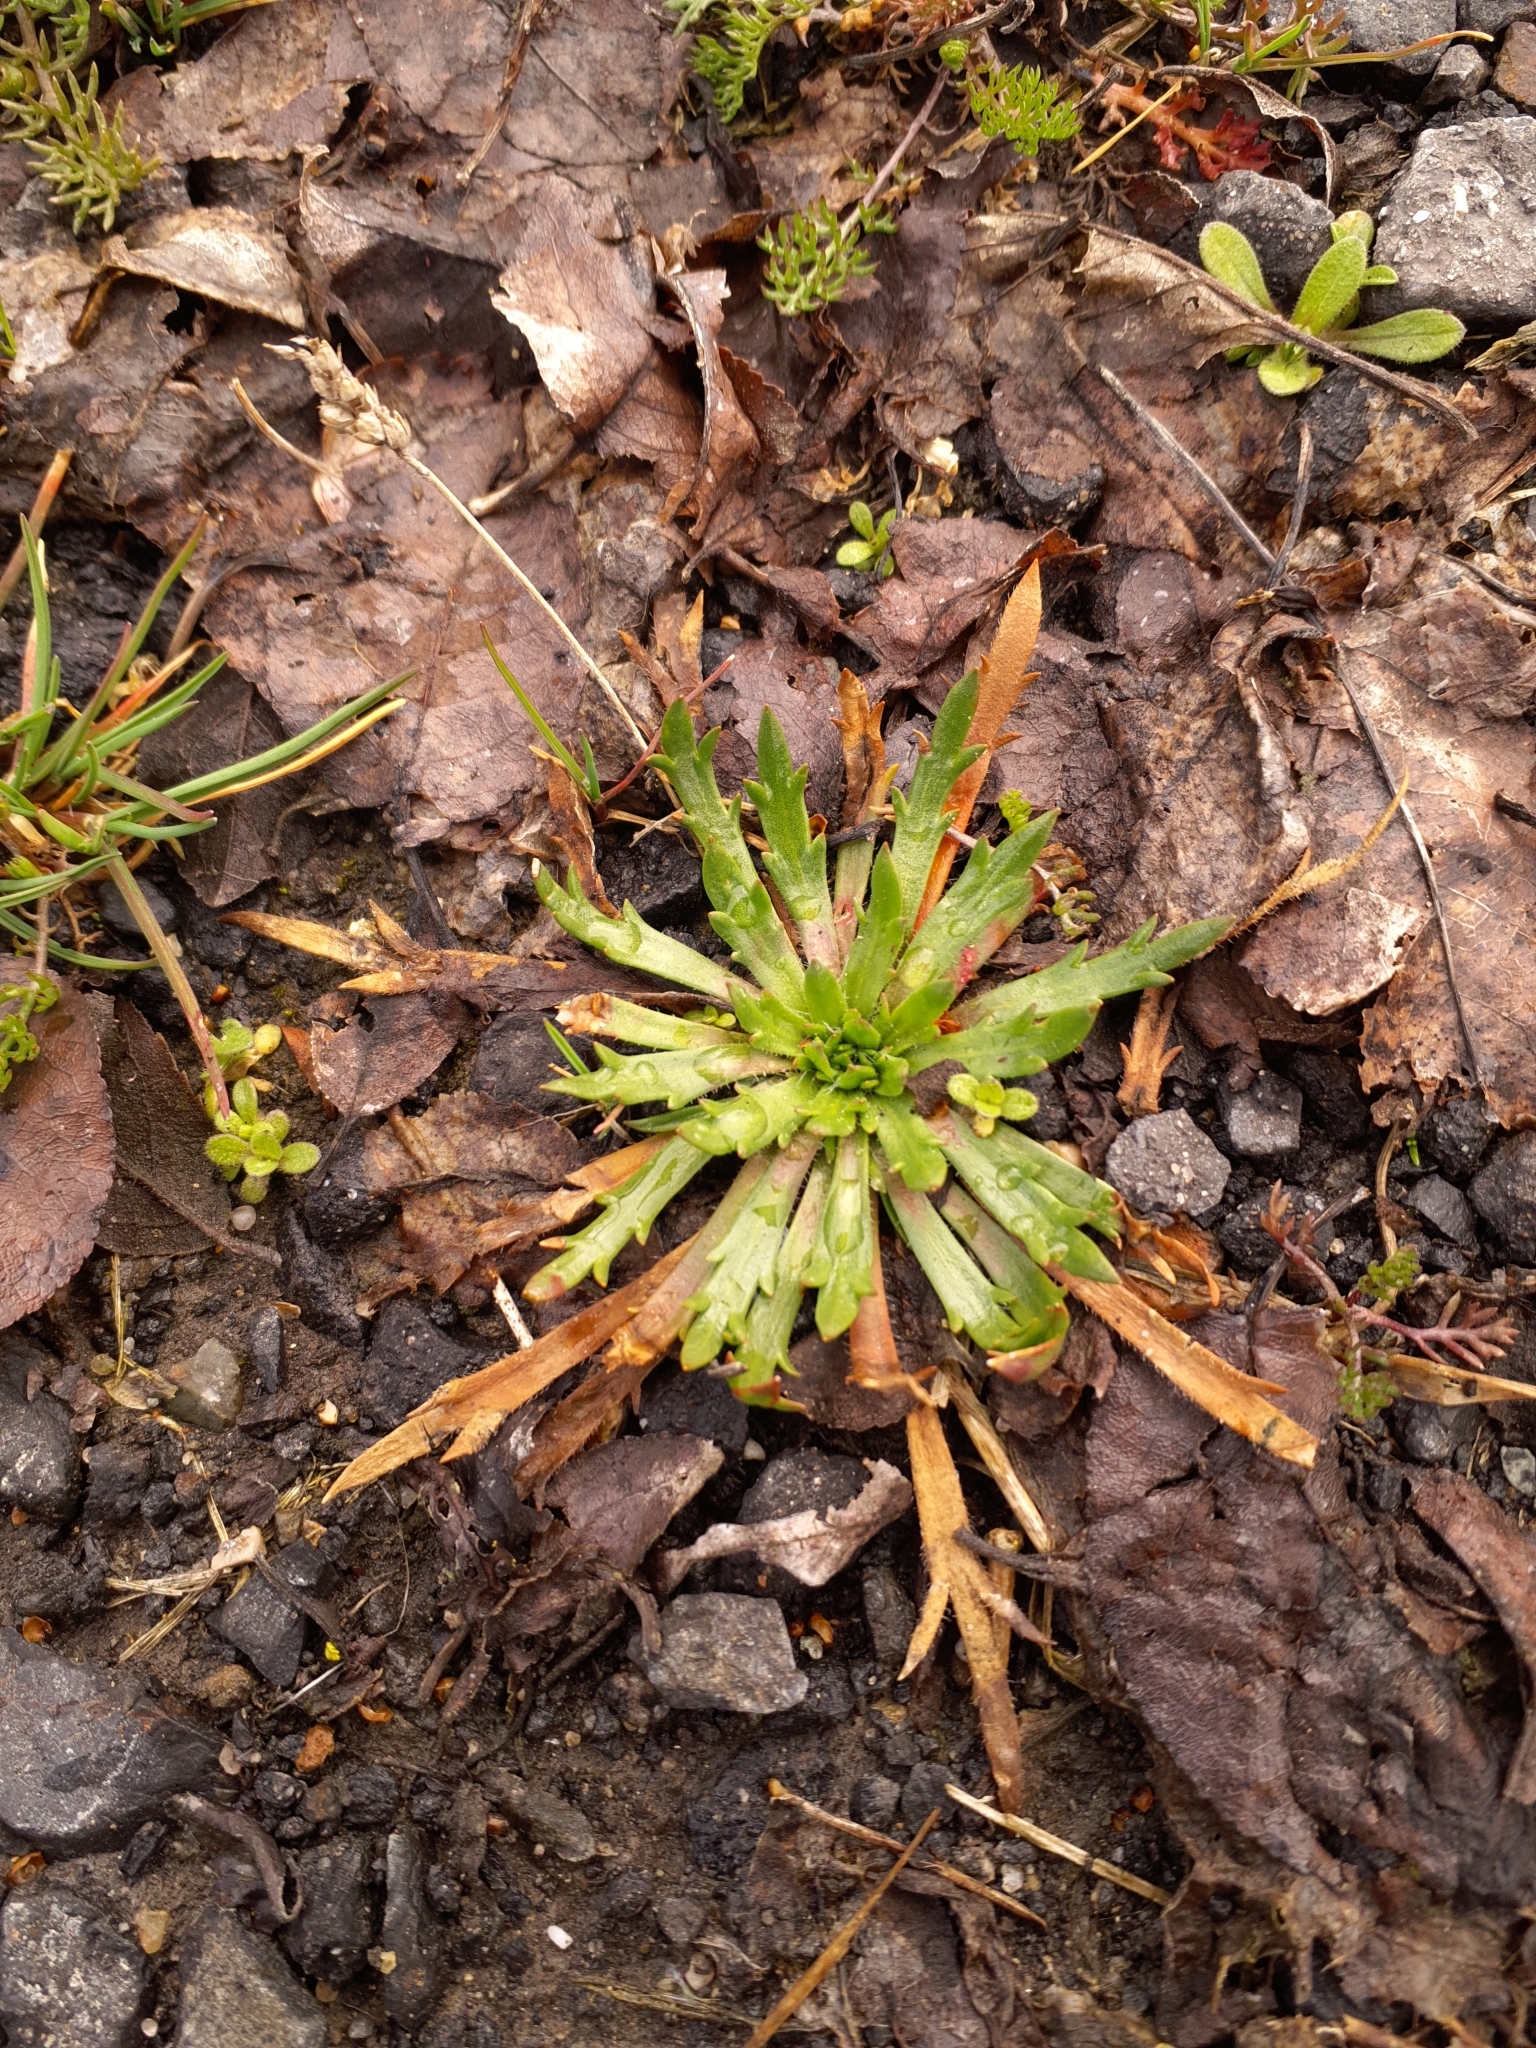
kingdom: Plantae
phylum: Tracheophyta
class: Magnoliopsida
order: Lamiales
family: Plantaginaceae
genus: Plantago
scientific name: Plantago coronopus
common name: Buck's-horn plantain
